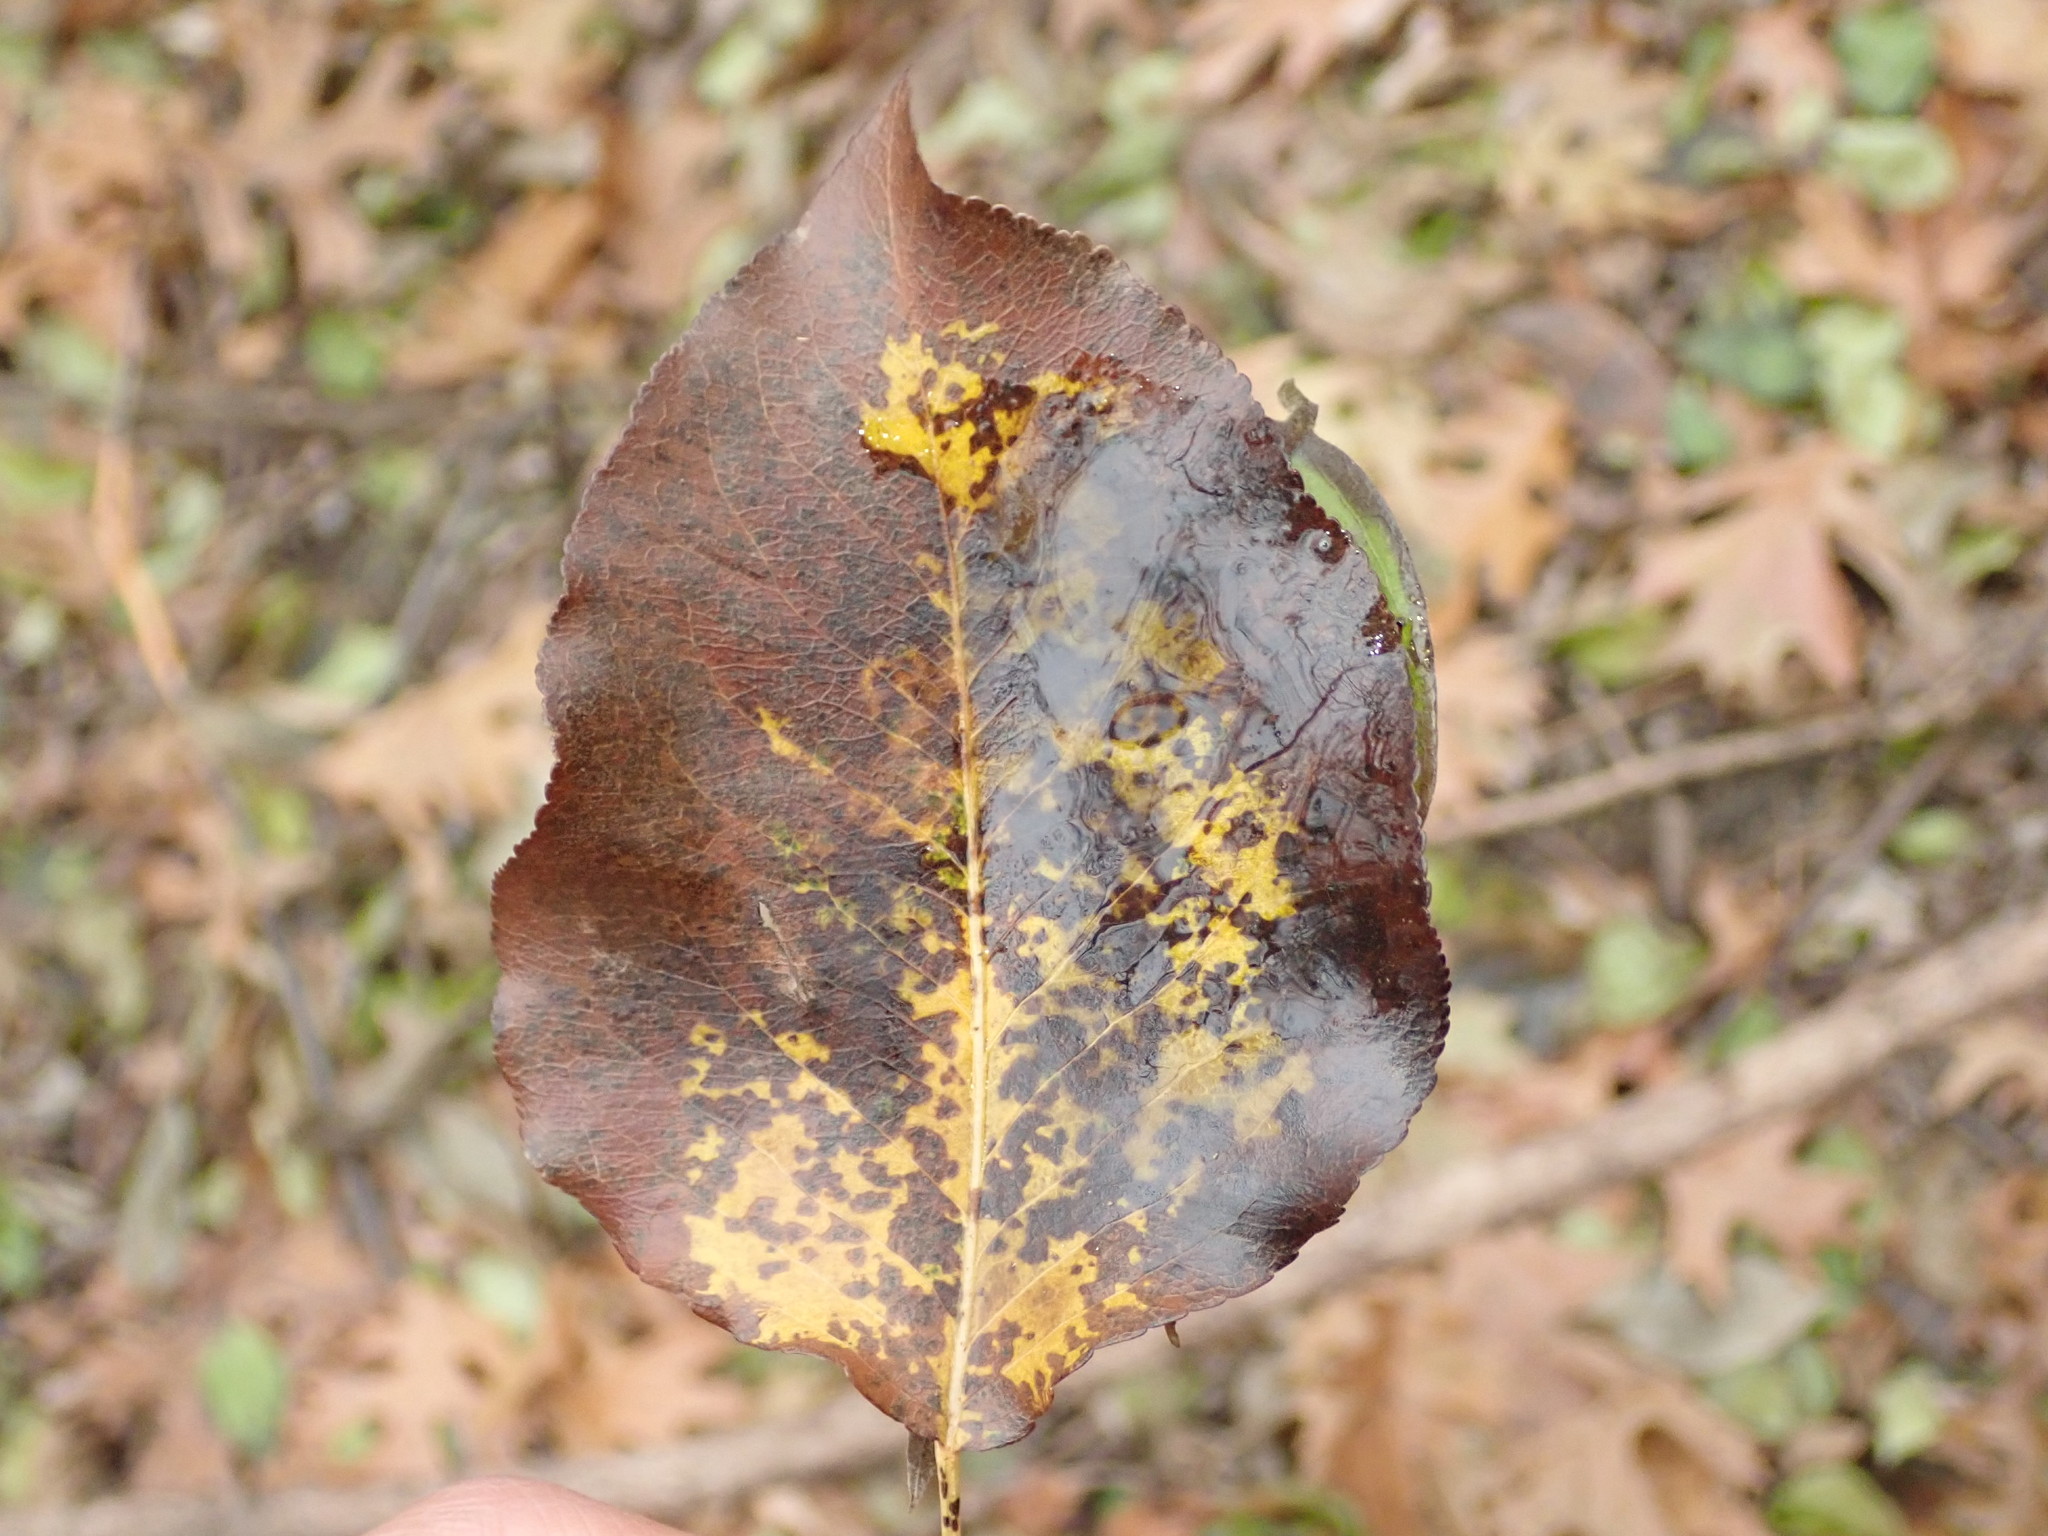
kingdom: Plantae
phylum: Tracheophyta
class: Magnoliopsida
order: Rosales
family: Rosaceae
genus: Pyrus
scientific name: Pyrus calleryana
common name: Callery pear
